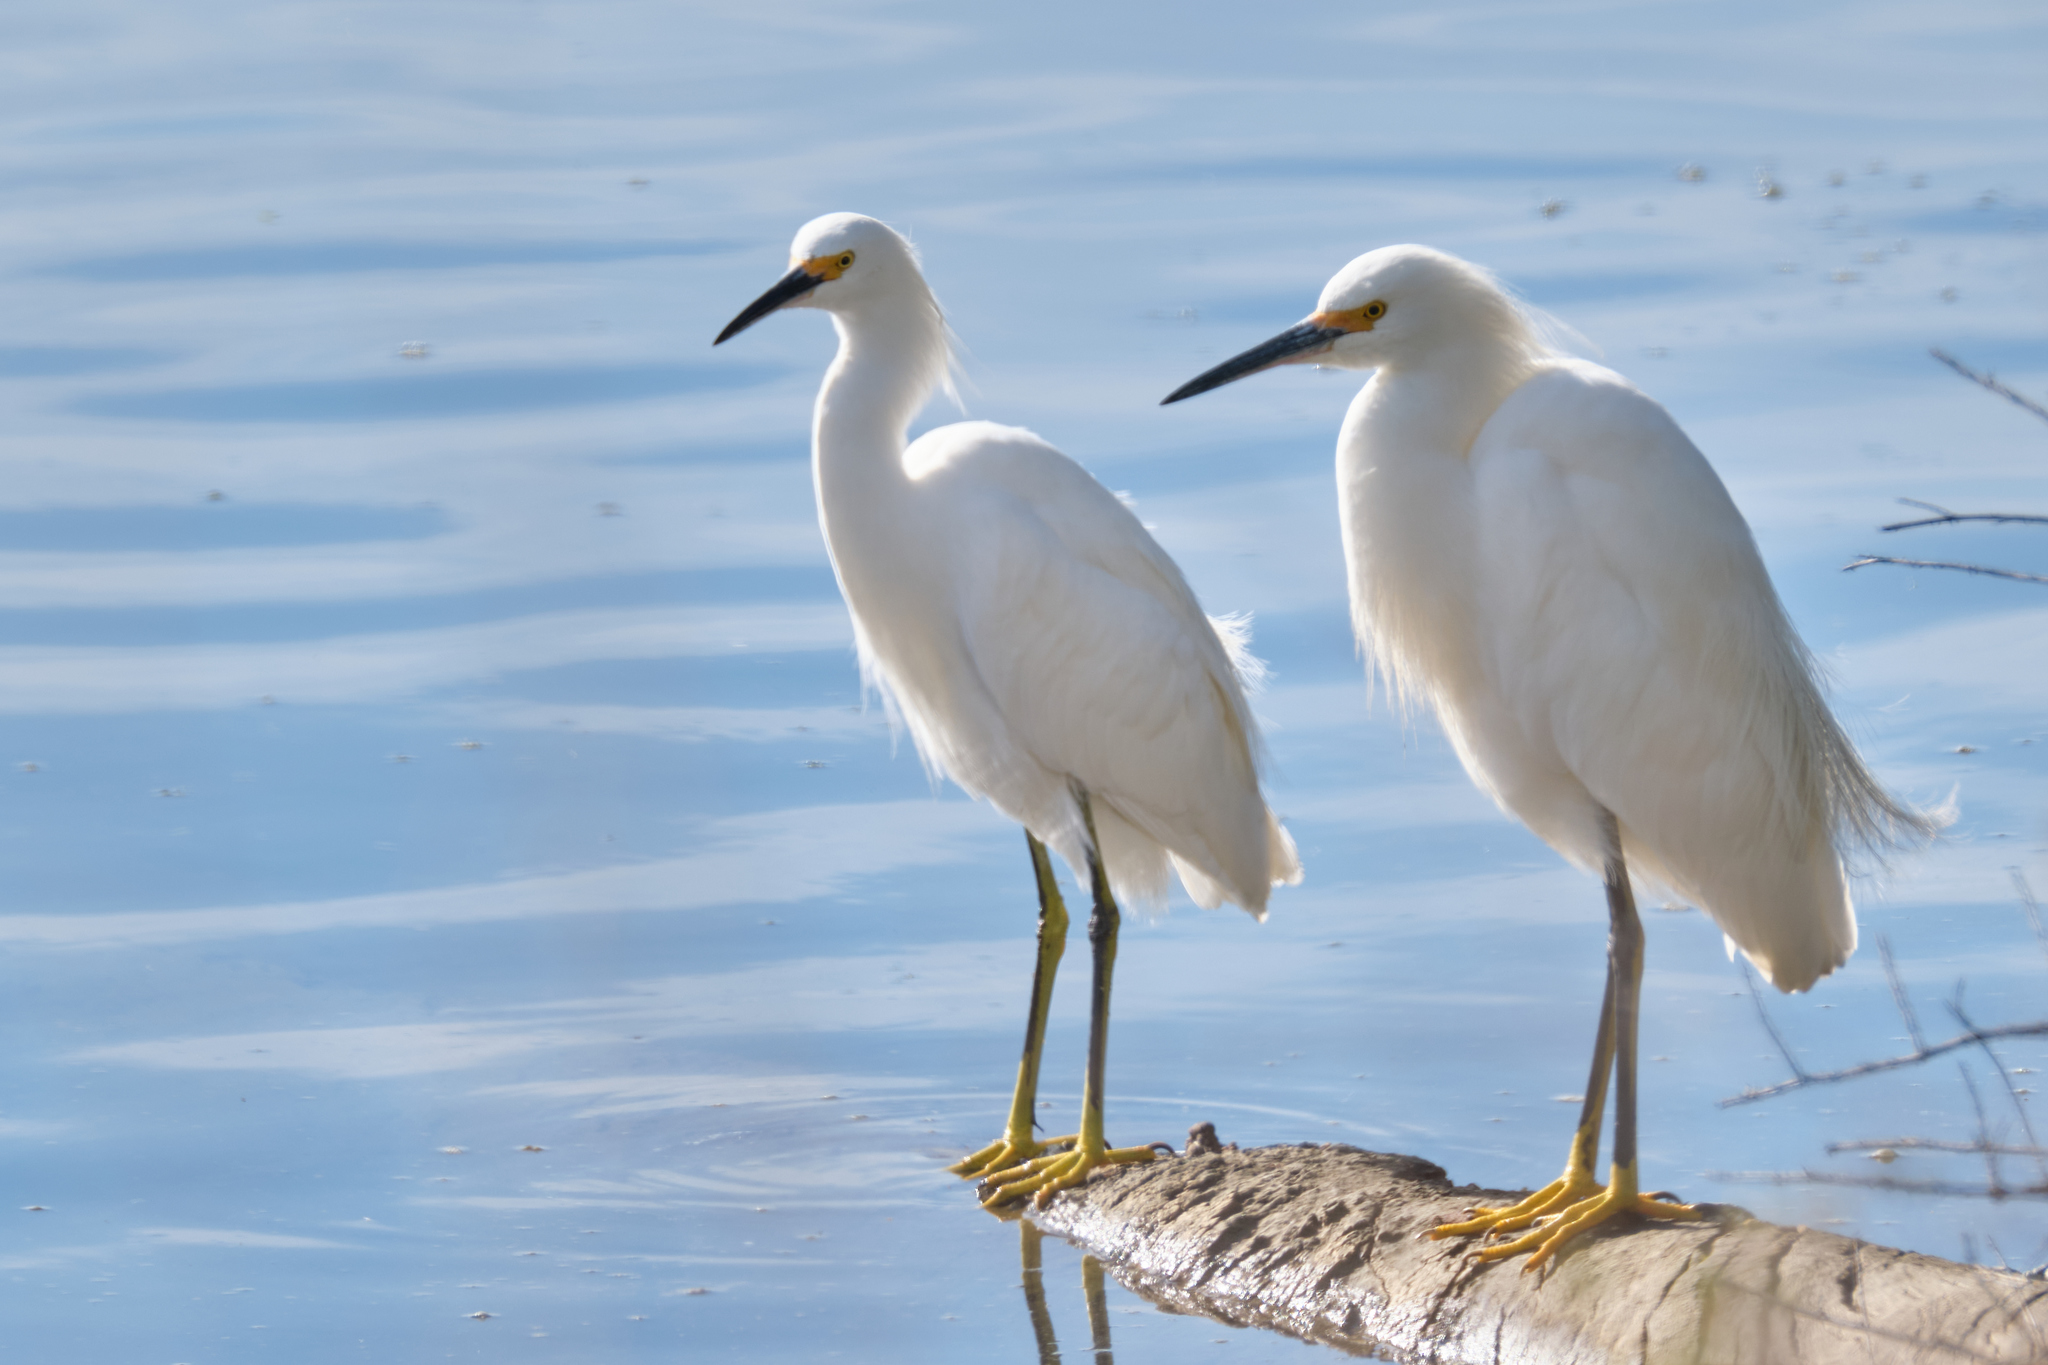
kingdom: Animalia
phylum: Chordata
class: Aves
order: Pelecaniformes
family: Ardeidae
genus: Egretta
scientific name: Egretta thula
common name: Snowy egret
